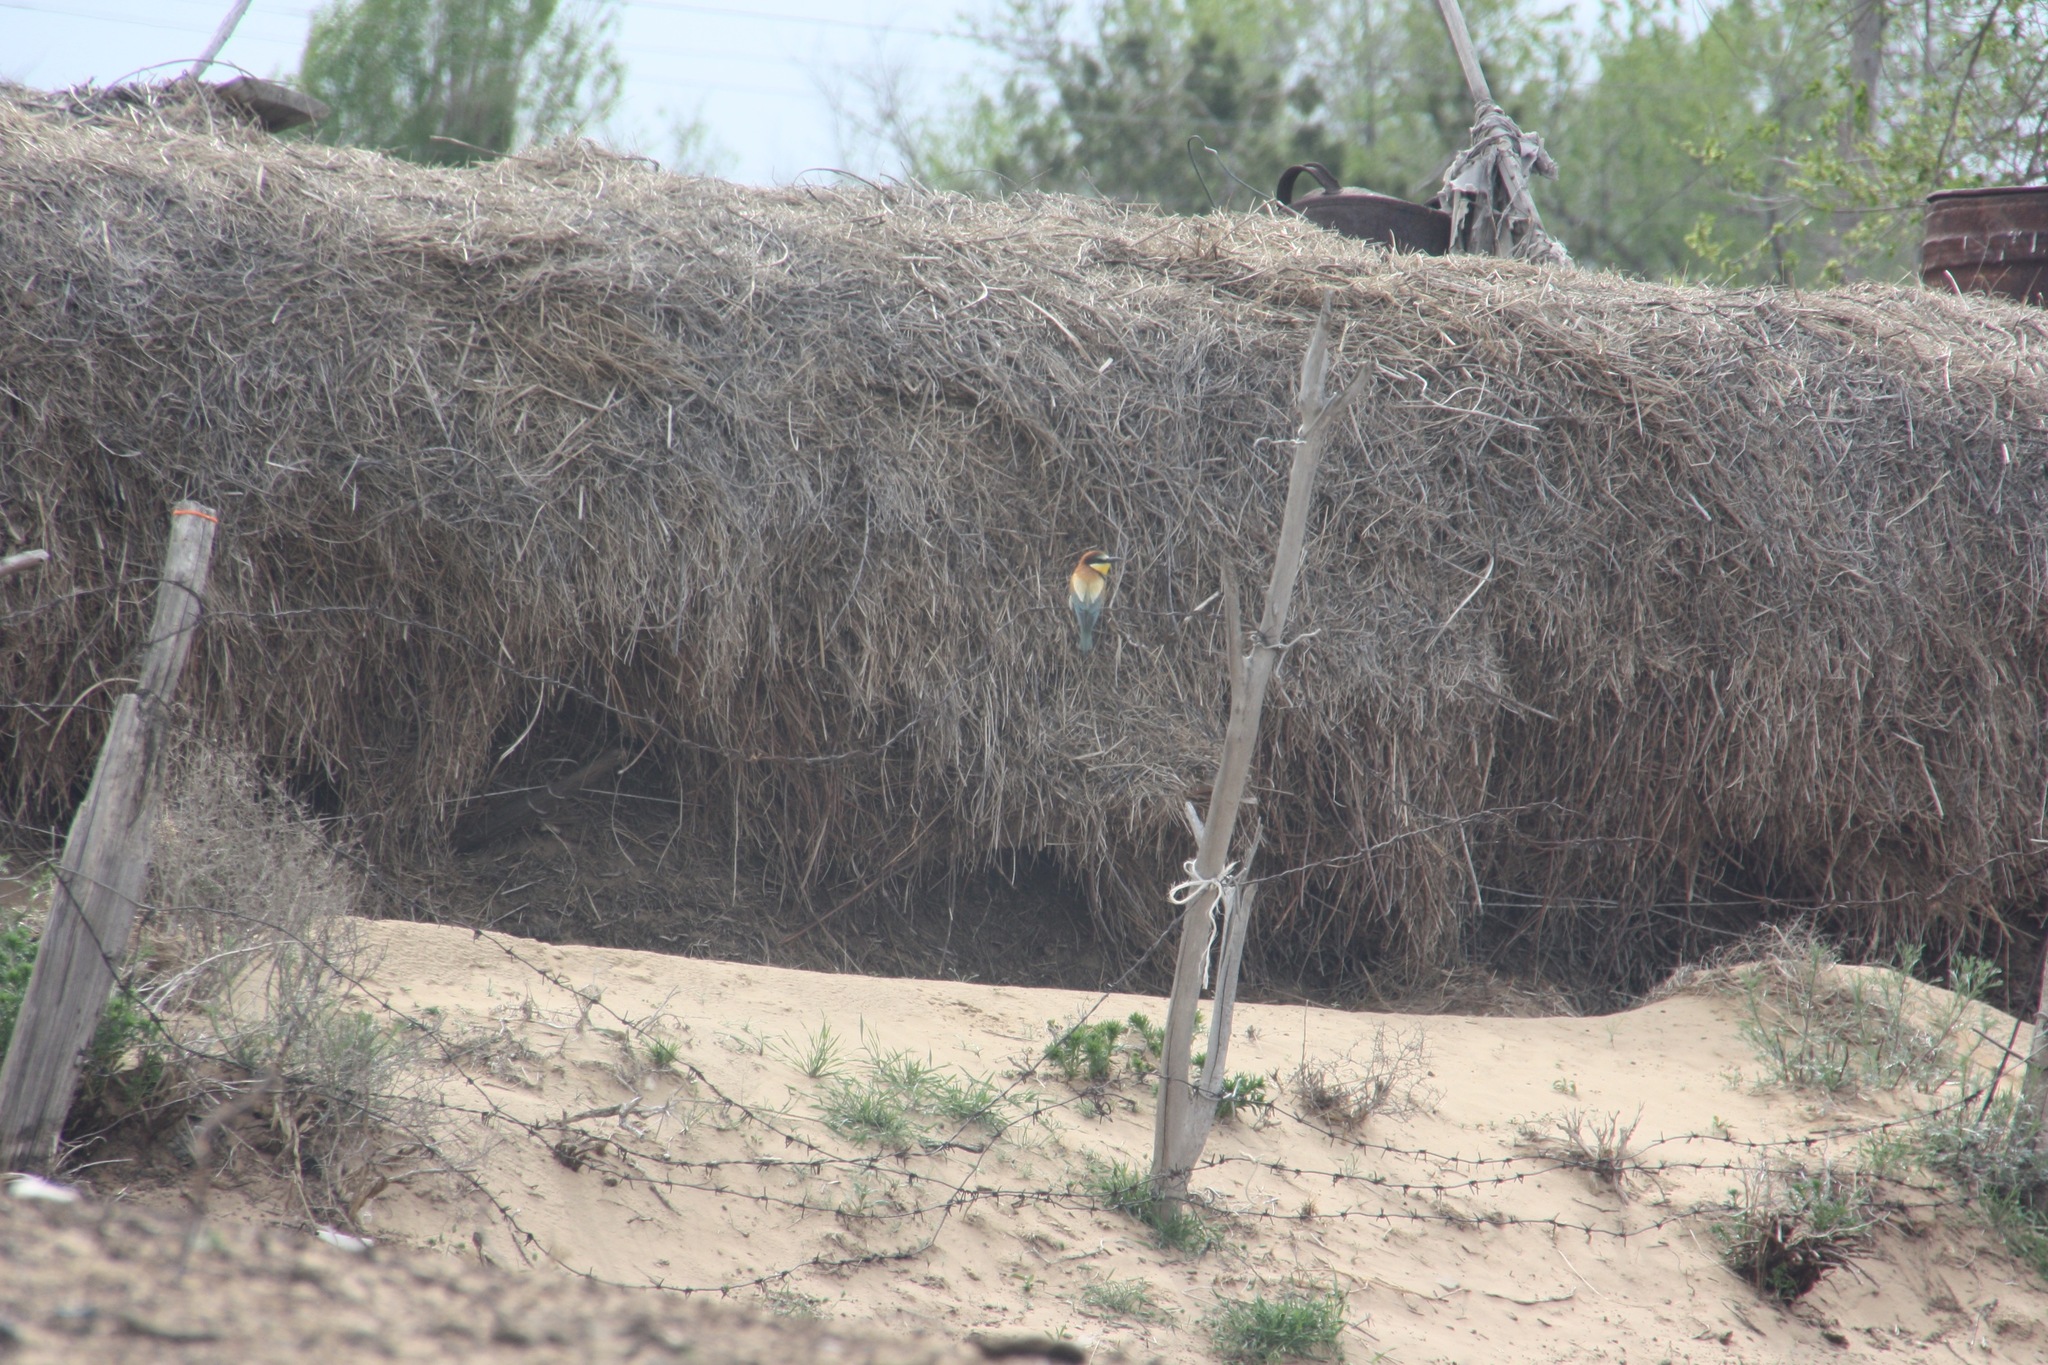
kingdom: Animalia
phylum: Chordata
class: Aves
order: Coraciiformes
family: Meropidae
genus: Merops
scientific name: Merops apiaster
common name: European bee-eater
